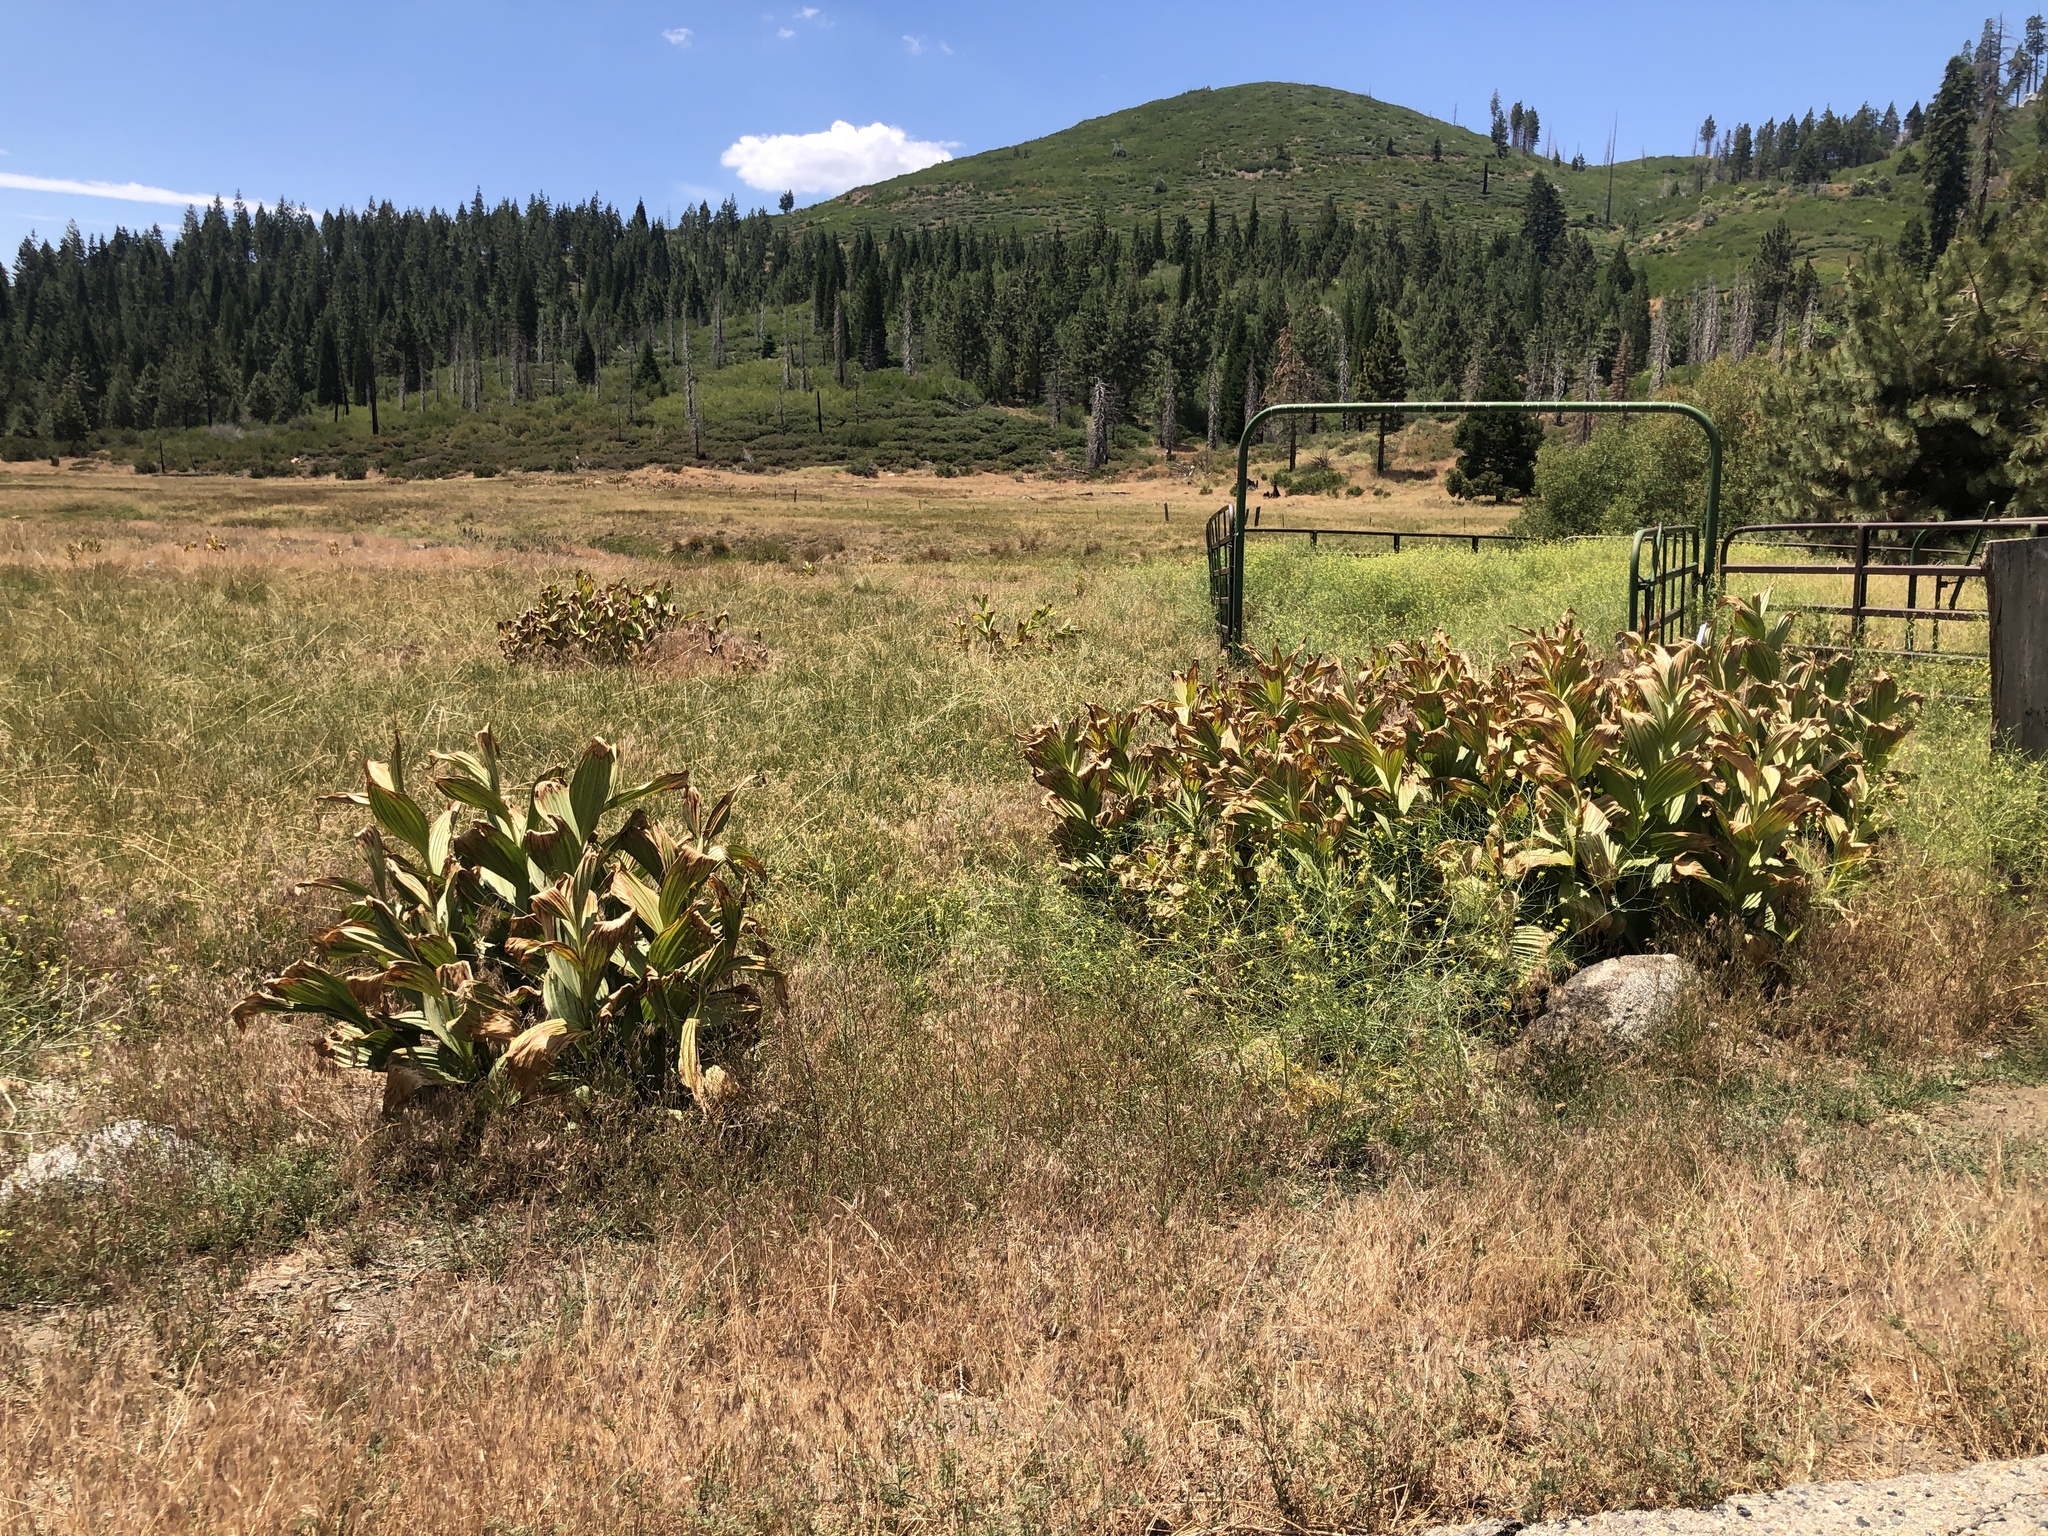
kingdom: Plantae
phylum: Tracheophyta
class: Liliopsida
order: Liliales
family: Melanthiaceae
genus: Veratrum
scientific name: Veratrum californicum
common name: California veratrum
